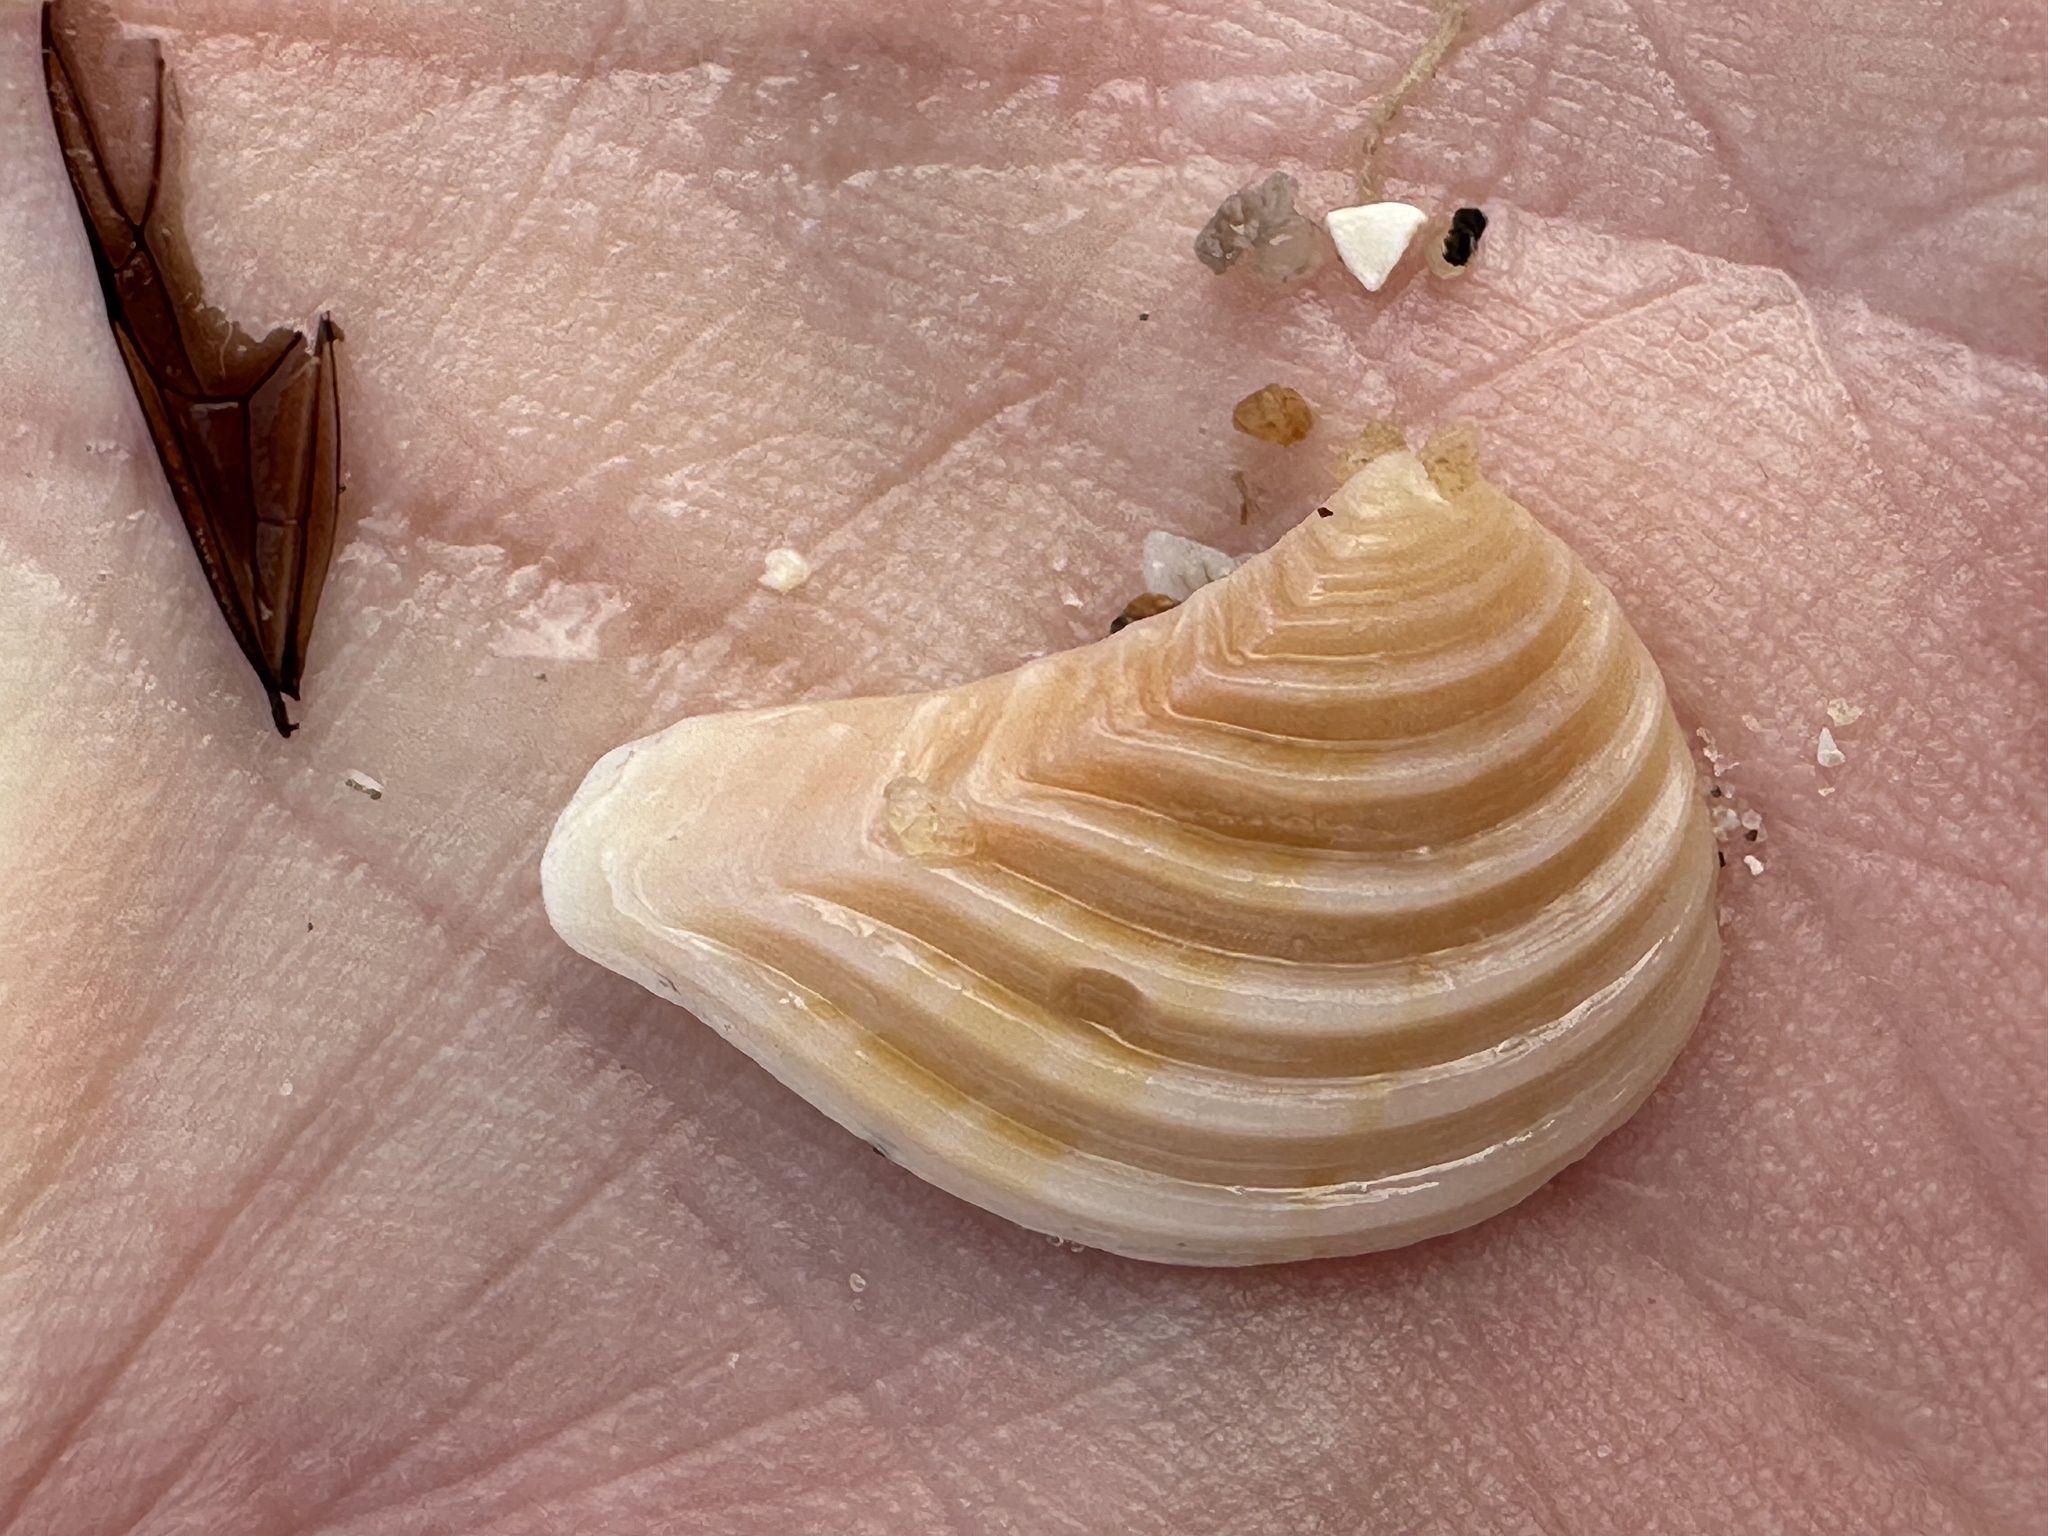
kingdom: Animalia
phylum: Mollusca
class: Bivalvia
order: Carditida
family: Crassatellidae
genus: Bathytormus
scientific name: Bathytormus radiatus
